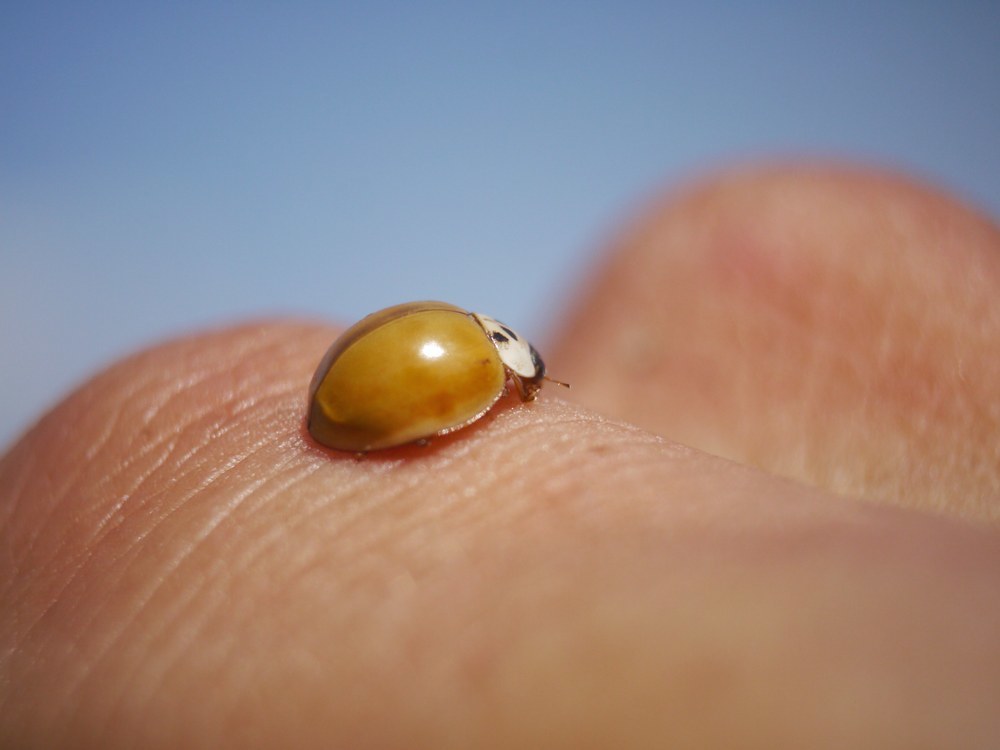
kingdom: Animalia
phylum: Arthropoda
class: Insecta
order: Coleoptera
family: Coccinellidae
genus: Harmonia
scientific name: Harmonia axyridis
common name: Harlequin ladybird
